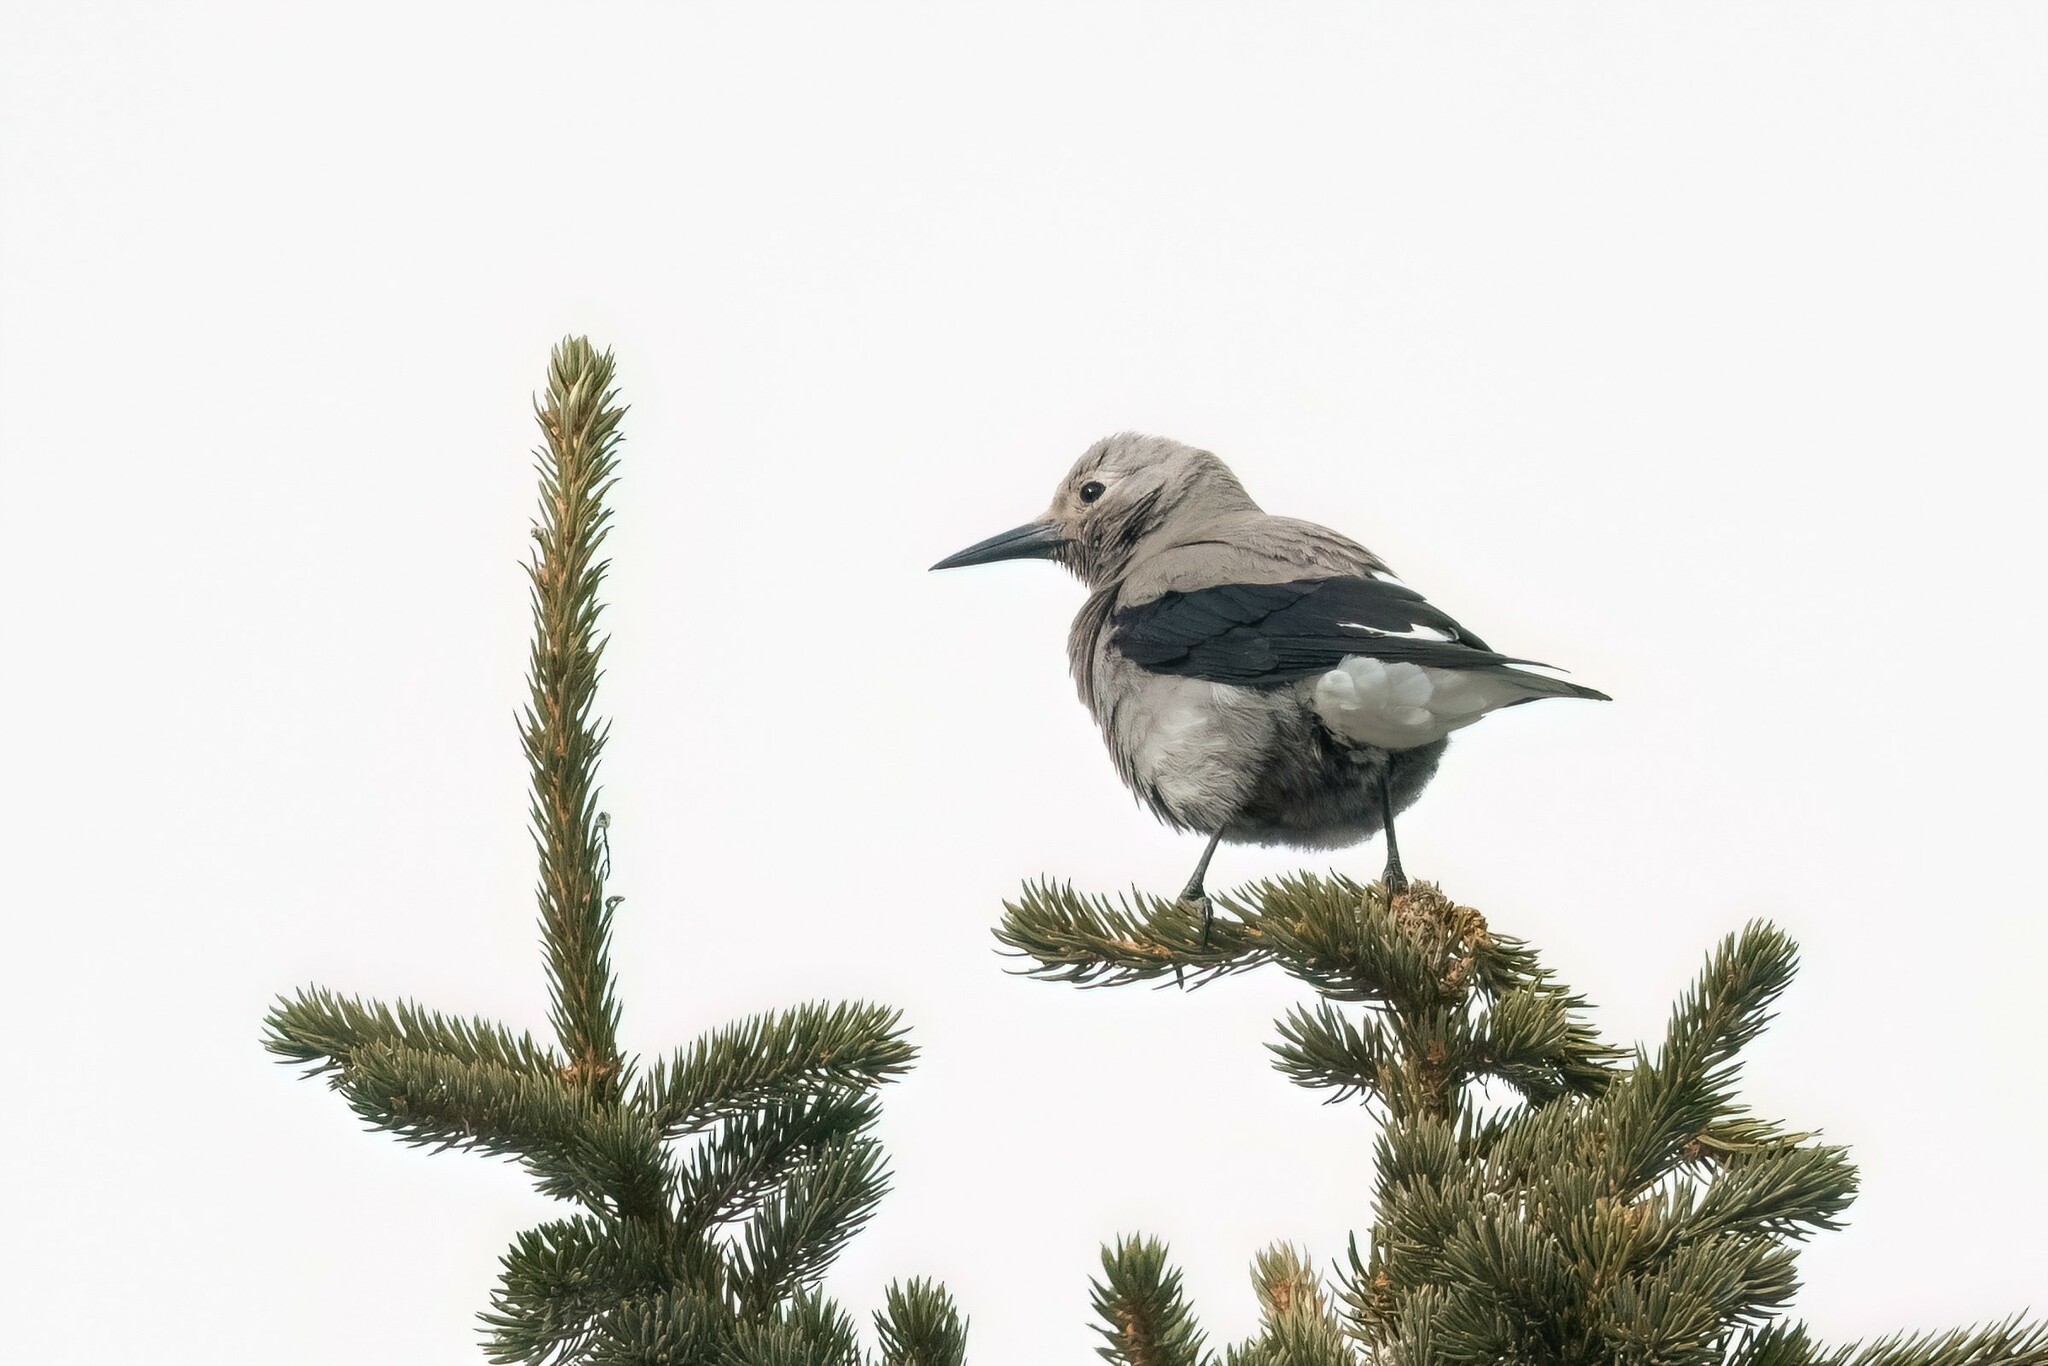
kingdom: Animalia
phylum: Chordata
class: Aves
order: Passeriformes
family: Corvidae
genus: Nucifraga
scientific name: Nucifraga columbiana
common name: Clark's nutcracker
